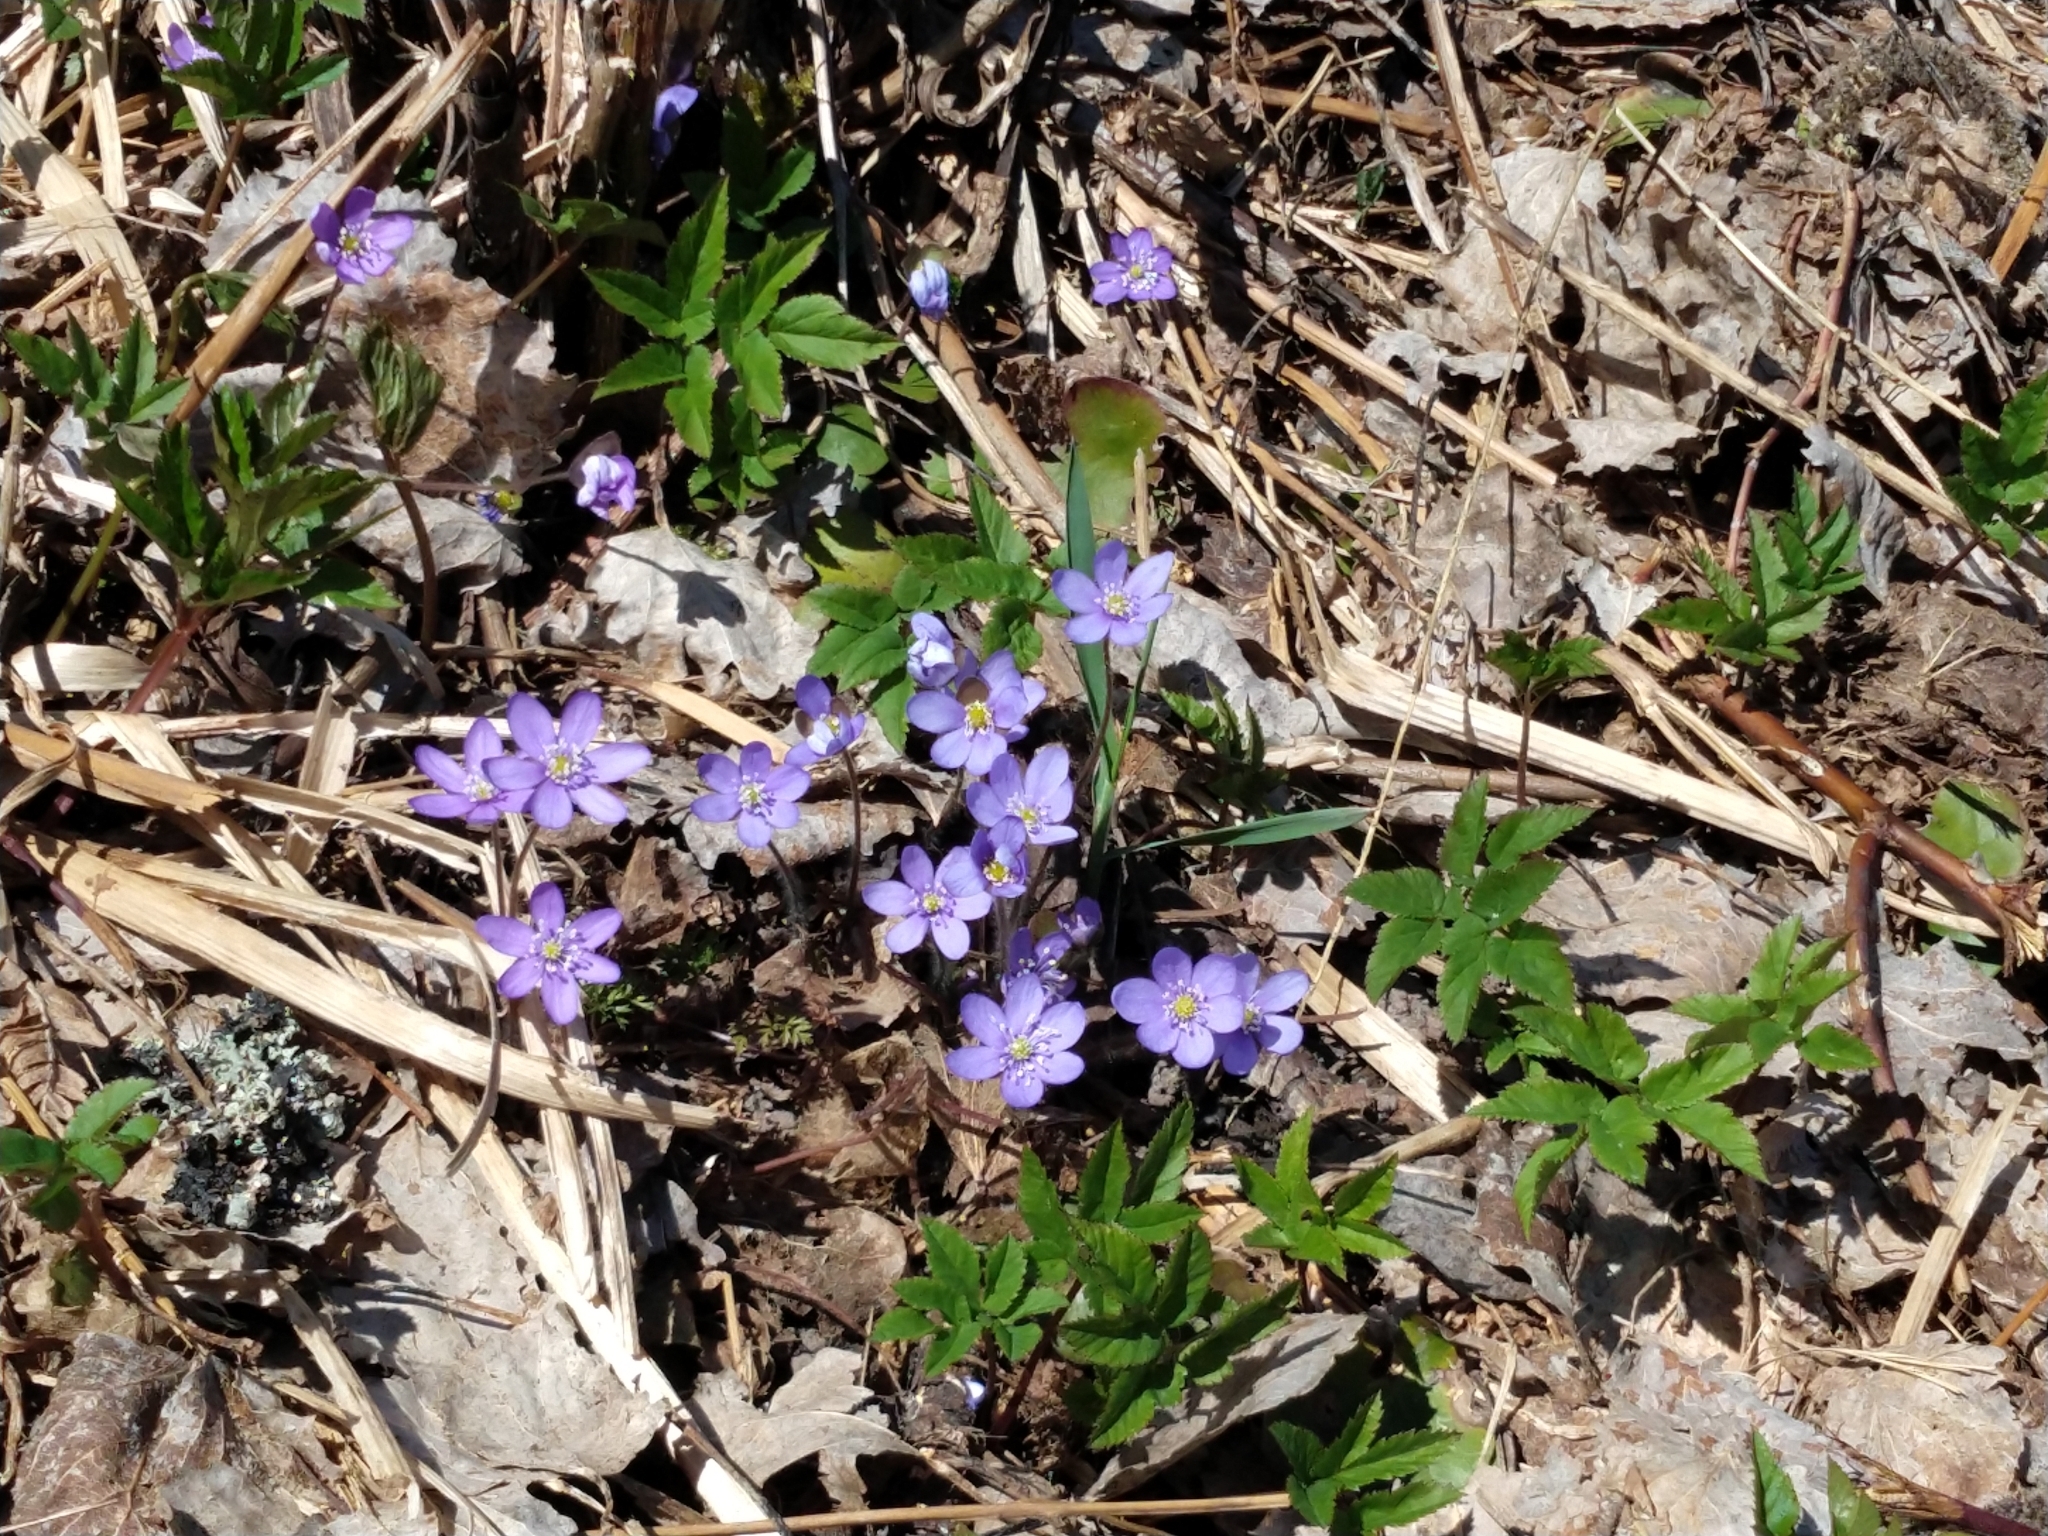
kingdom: Plantae
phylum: Tracheophyta
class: Magnoliopsida
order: Ranunculales
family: Ranunculaceae
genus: Hepatica
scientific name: Hepatica nobilis
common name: Liverleaf
